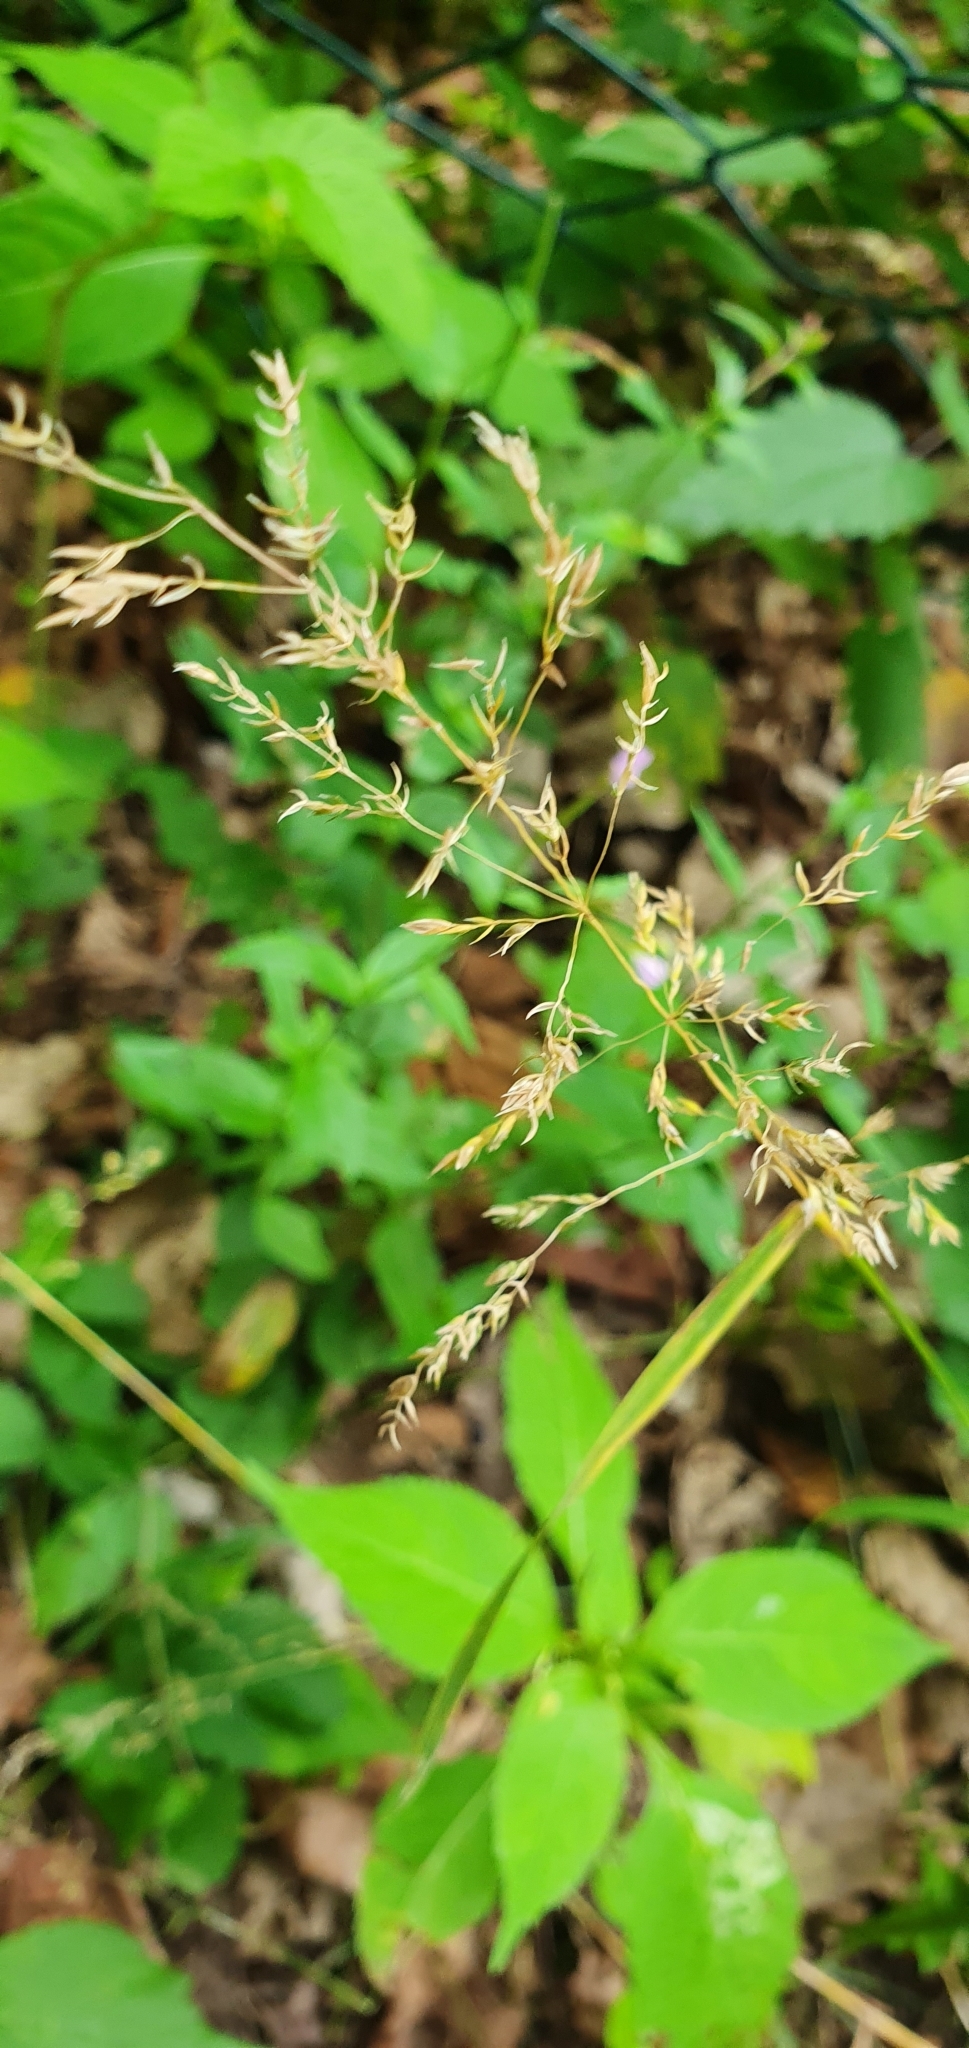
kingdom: Plantae
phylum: Tracheophyta
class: Liliopsida
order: Poales
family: Poaceae
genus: Poa
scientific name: Poa trivialis
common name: Rough bluegrass
